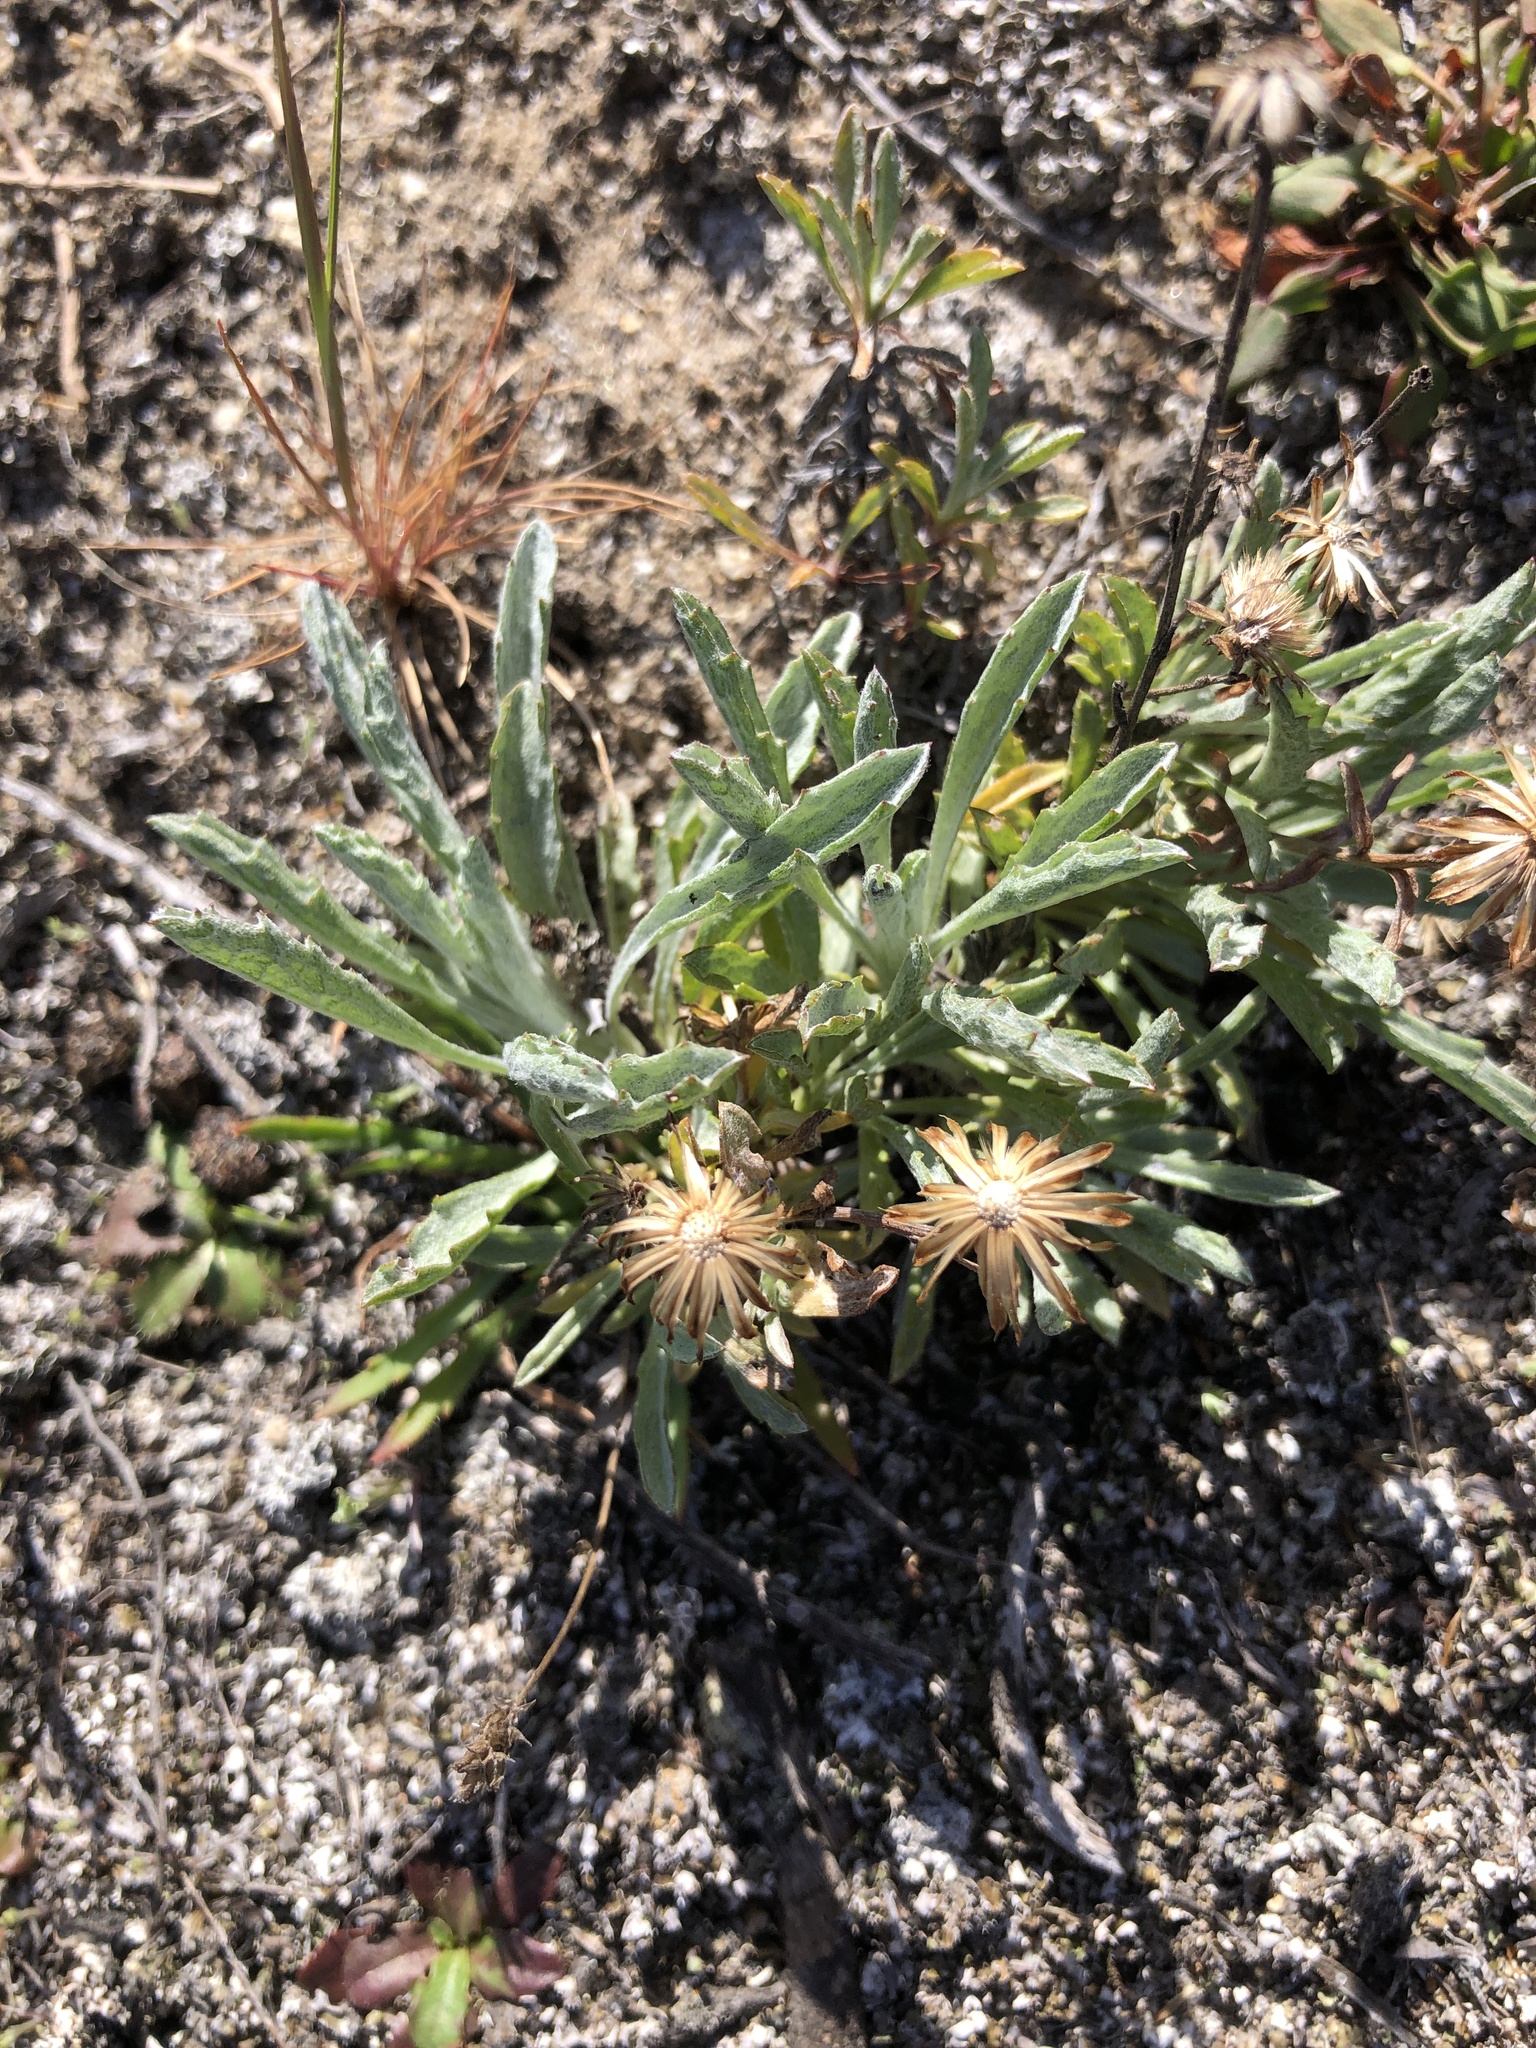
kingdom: Plantae
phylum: Tracheophyta
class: Magnoliopsida
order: Asterales
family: Asteraceae
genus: Corethrogyne
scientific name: Corethrogyne filaginifolia
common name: Sand-aster
